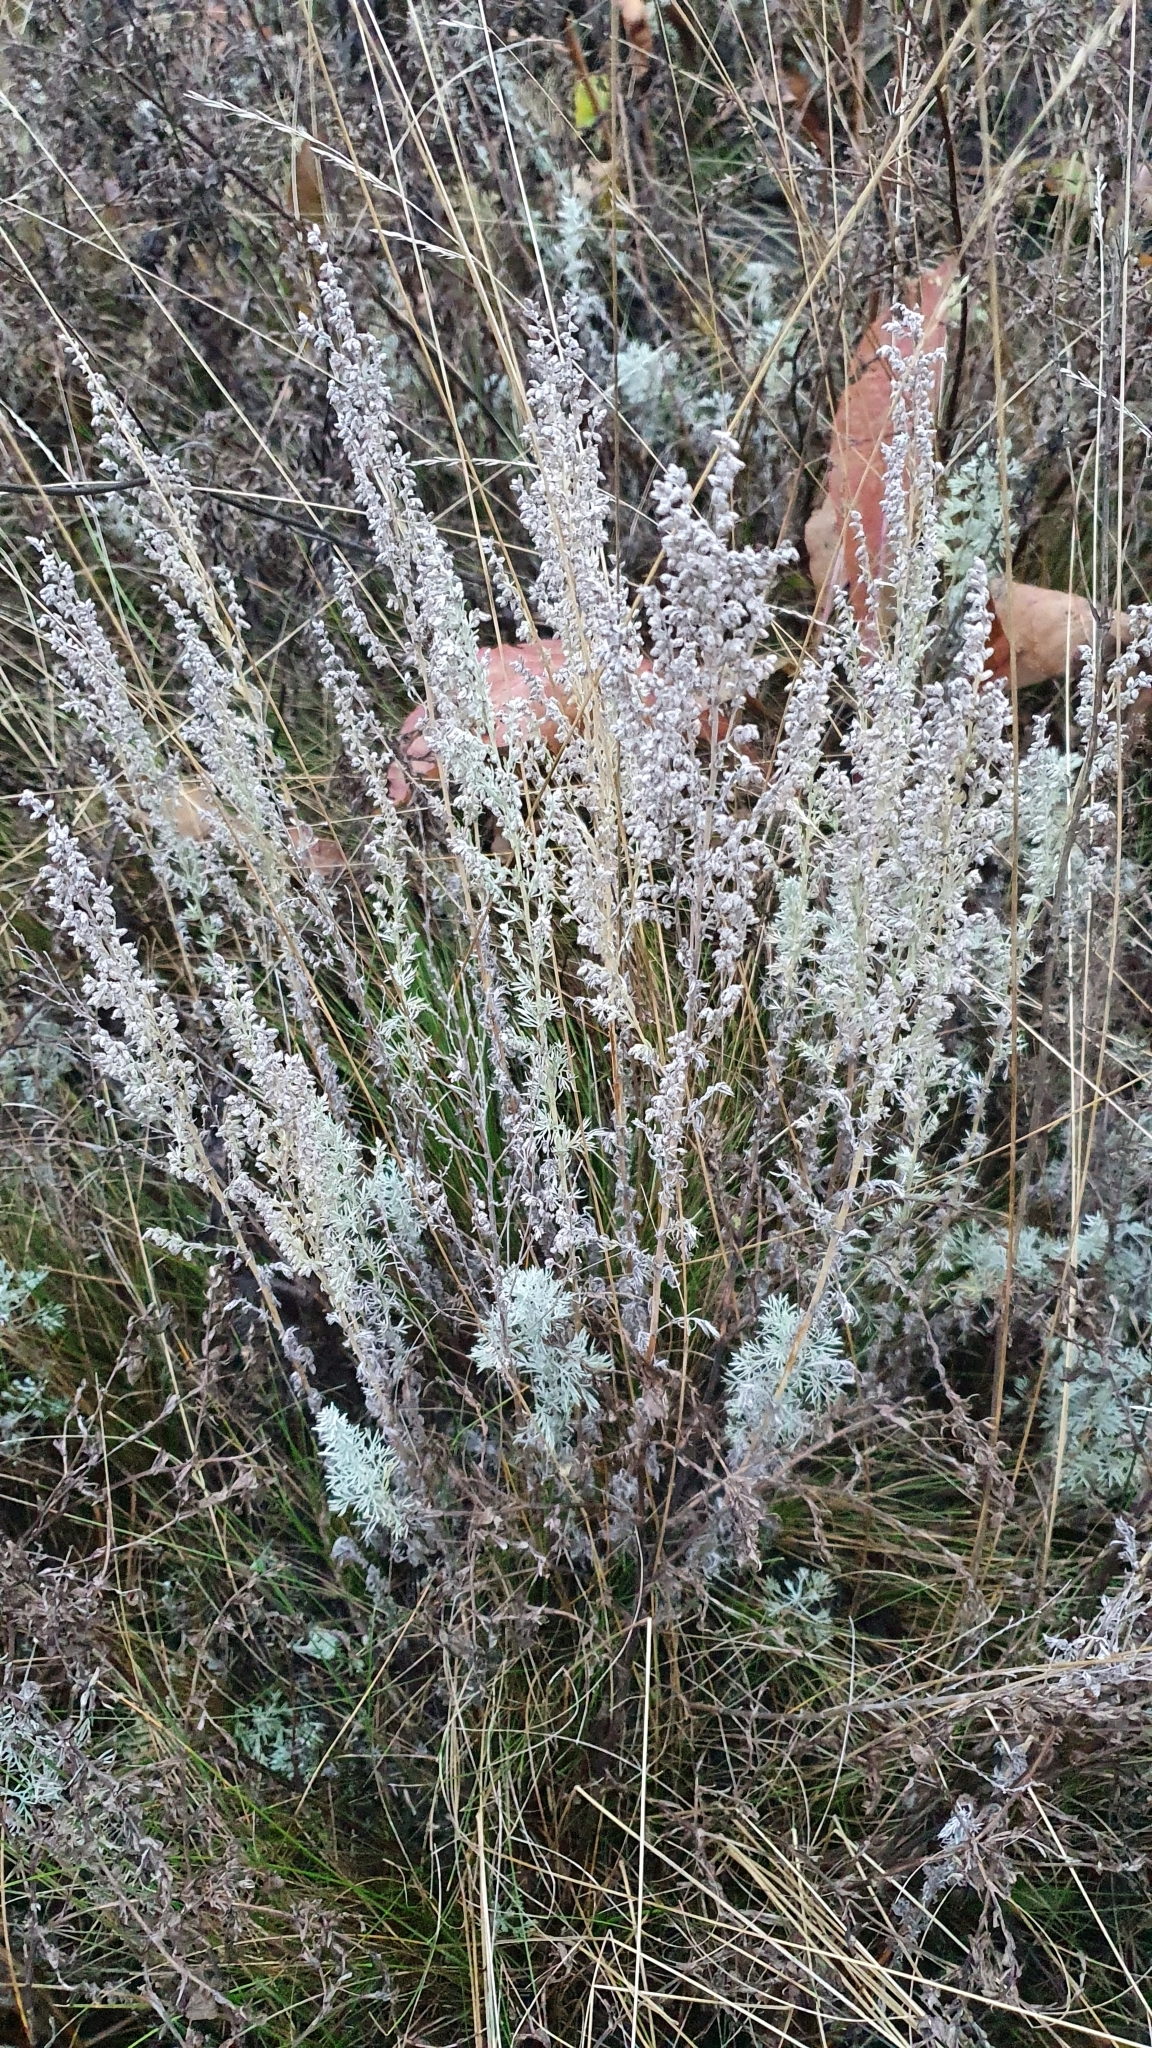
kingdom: Plantae
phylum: Tracheophyta
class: Magnoliopsida
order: Asterales
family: Asteraceae
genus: Artemisia
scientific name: Artemisia austriaca
